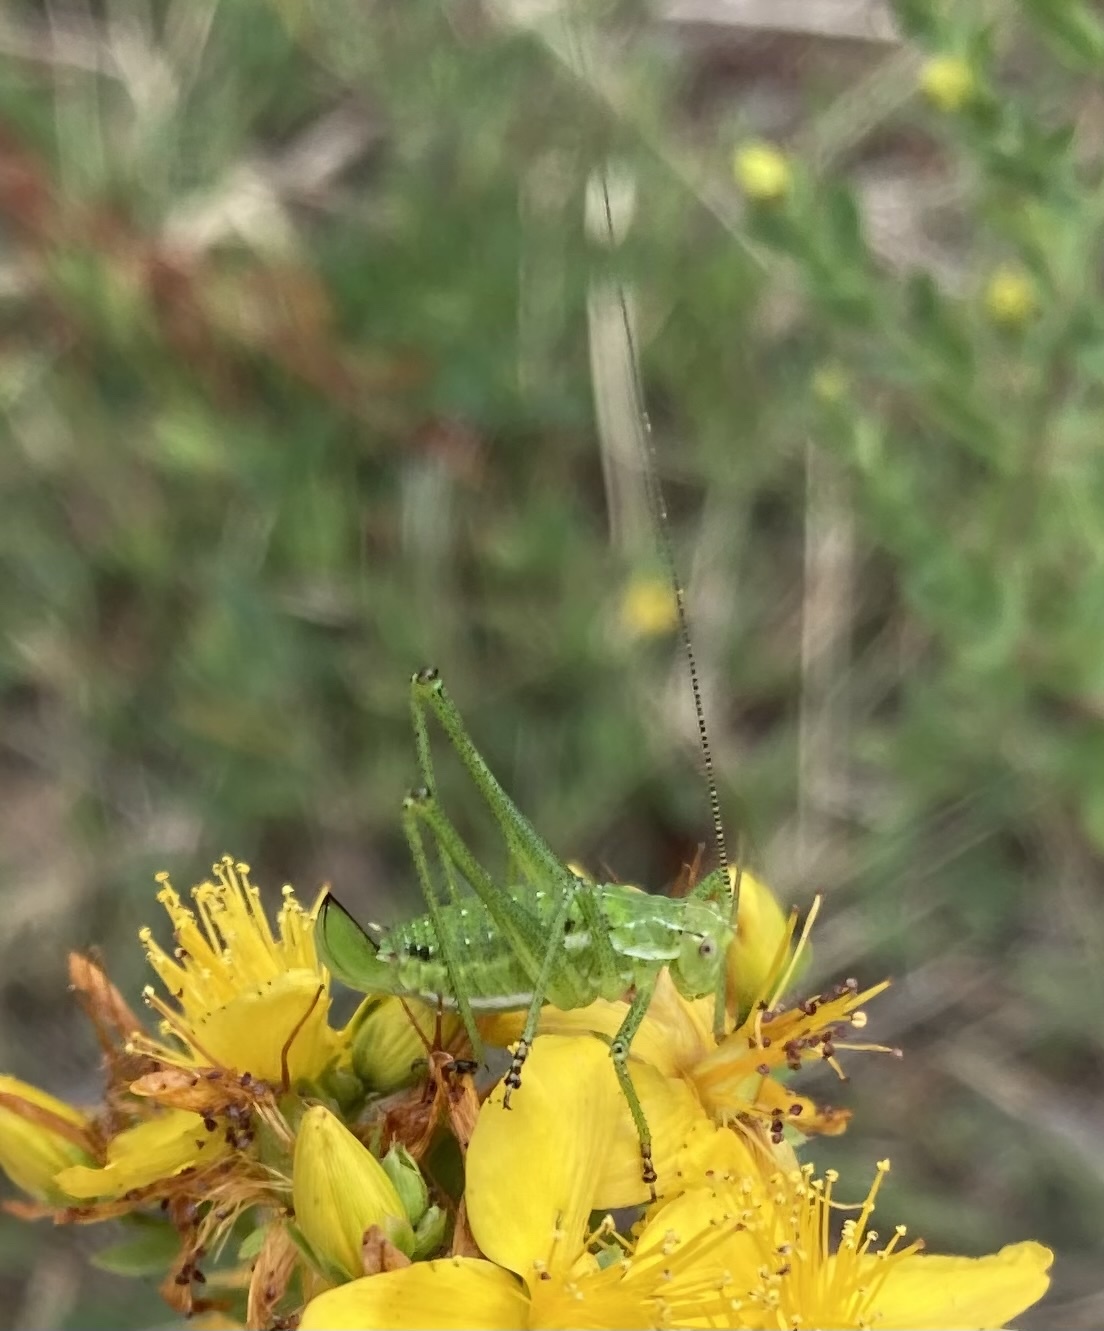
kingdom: Animalia
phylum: Arthropoda
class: Insecta
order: Orthoptera
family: Tettigoniidae
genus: Leptophyes
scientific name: Leptophyes albovittata
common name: Striped bush-cricket
